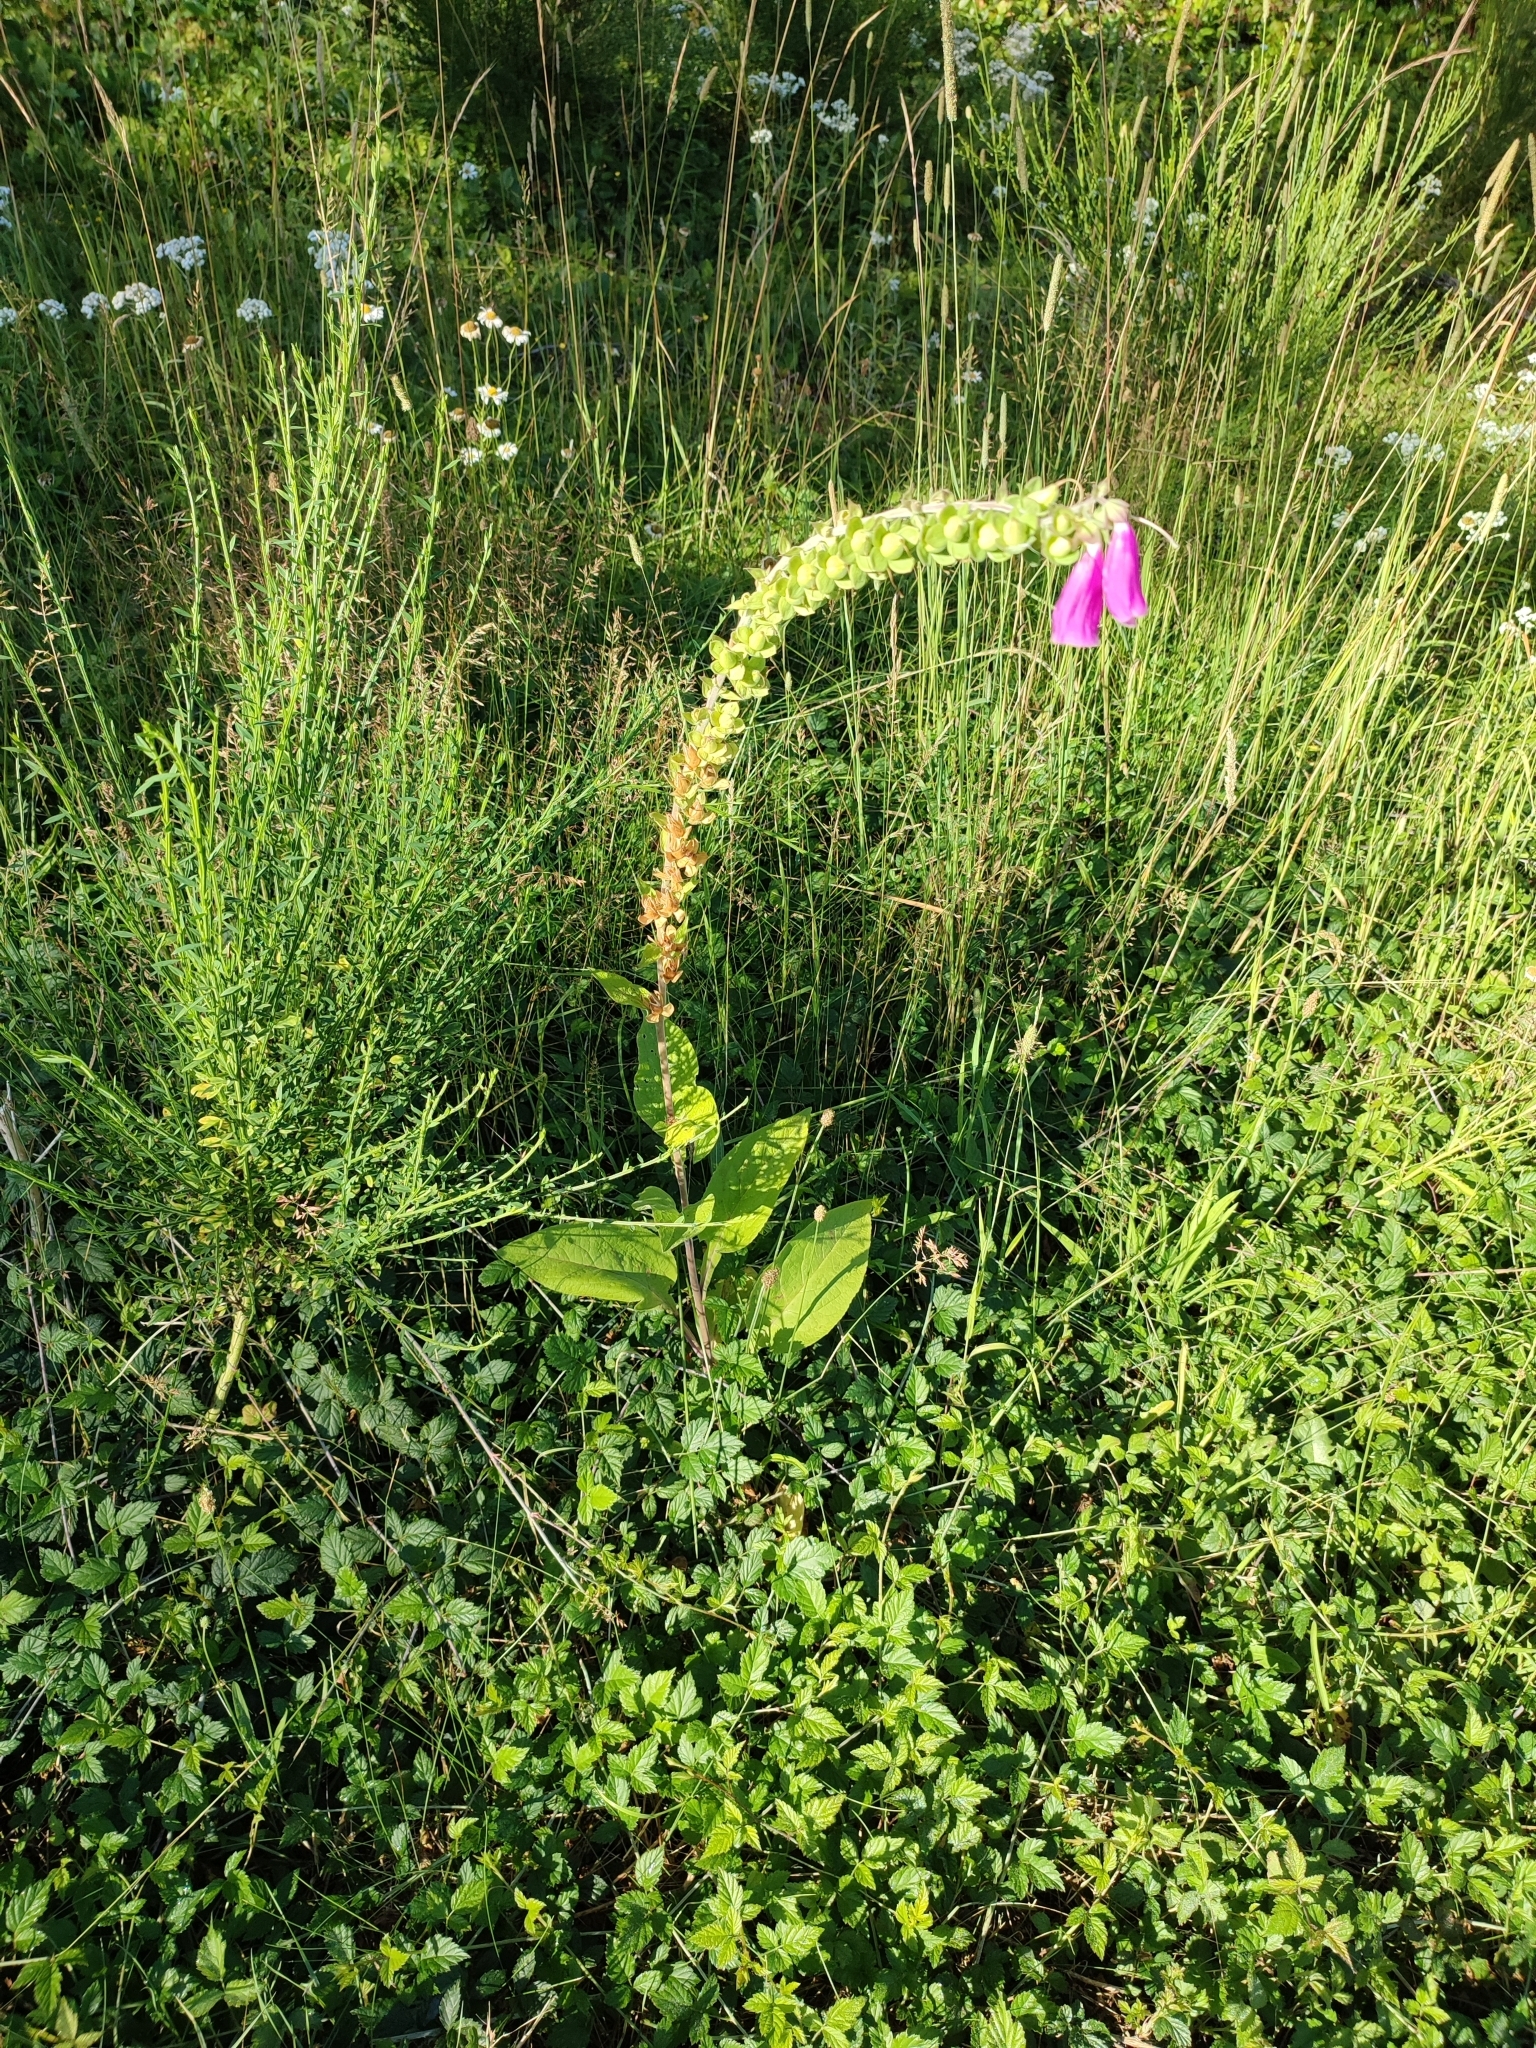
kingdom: Plantae
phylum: Tracheophyta
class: Magnoliopsida
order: Lamiales
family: Plantaginaceae
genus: Digitalis
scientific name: Digitalis purpurea
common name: Foxglove
